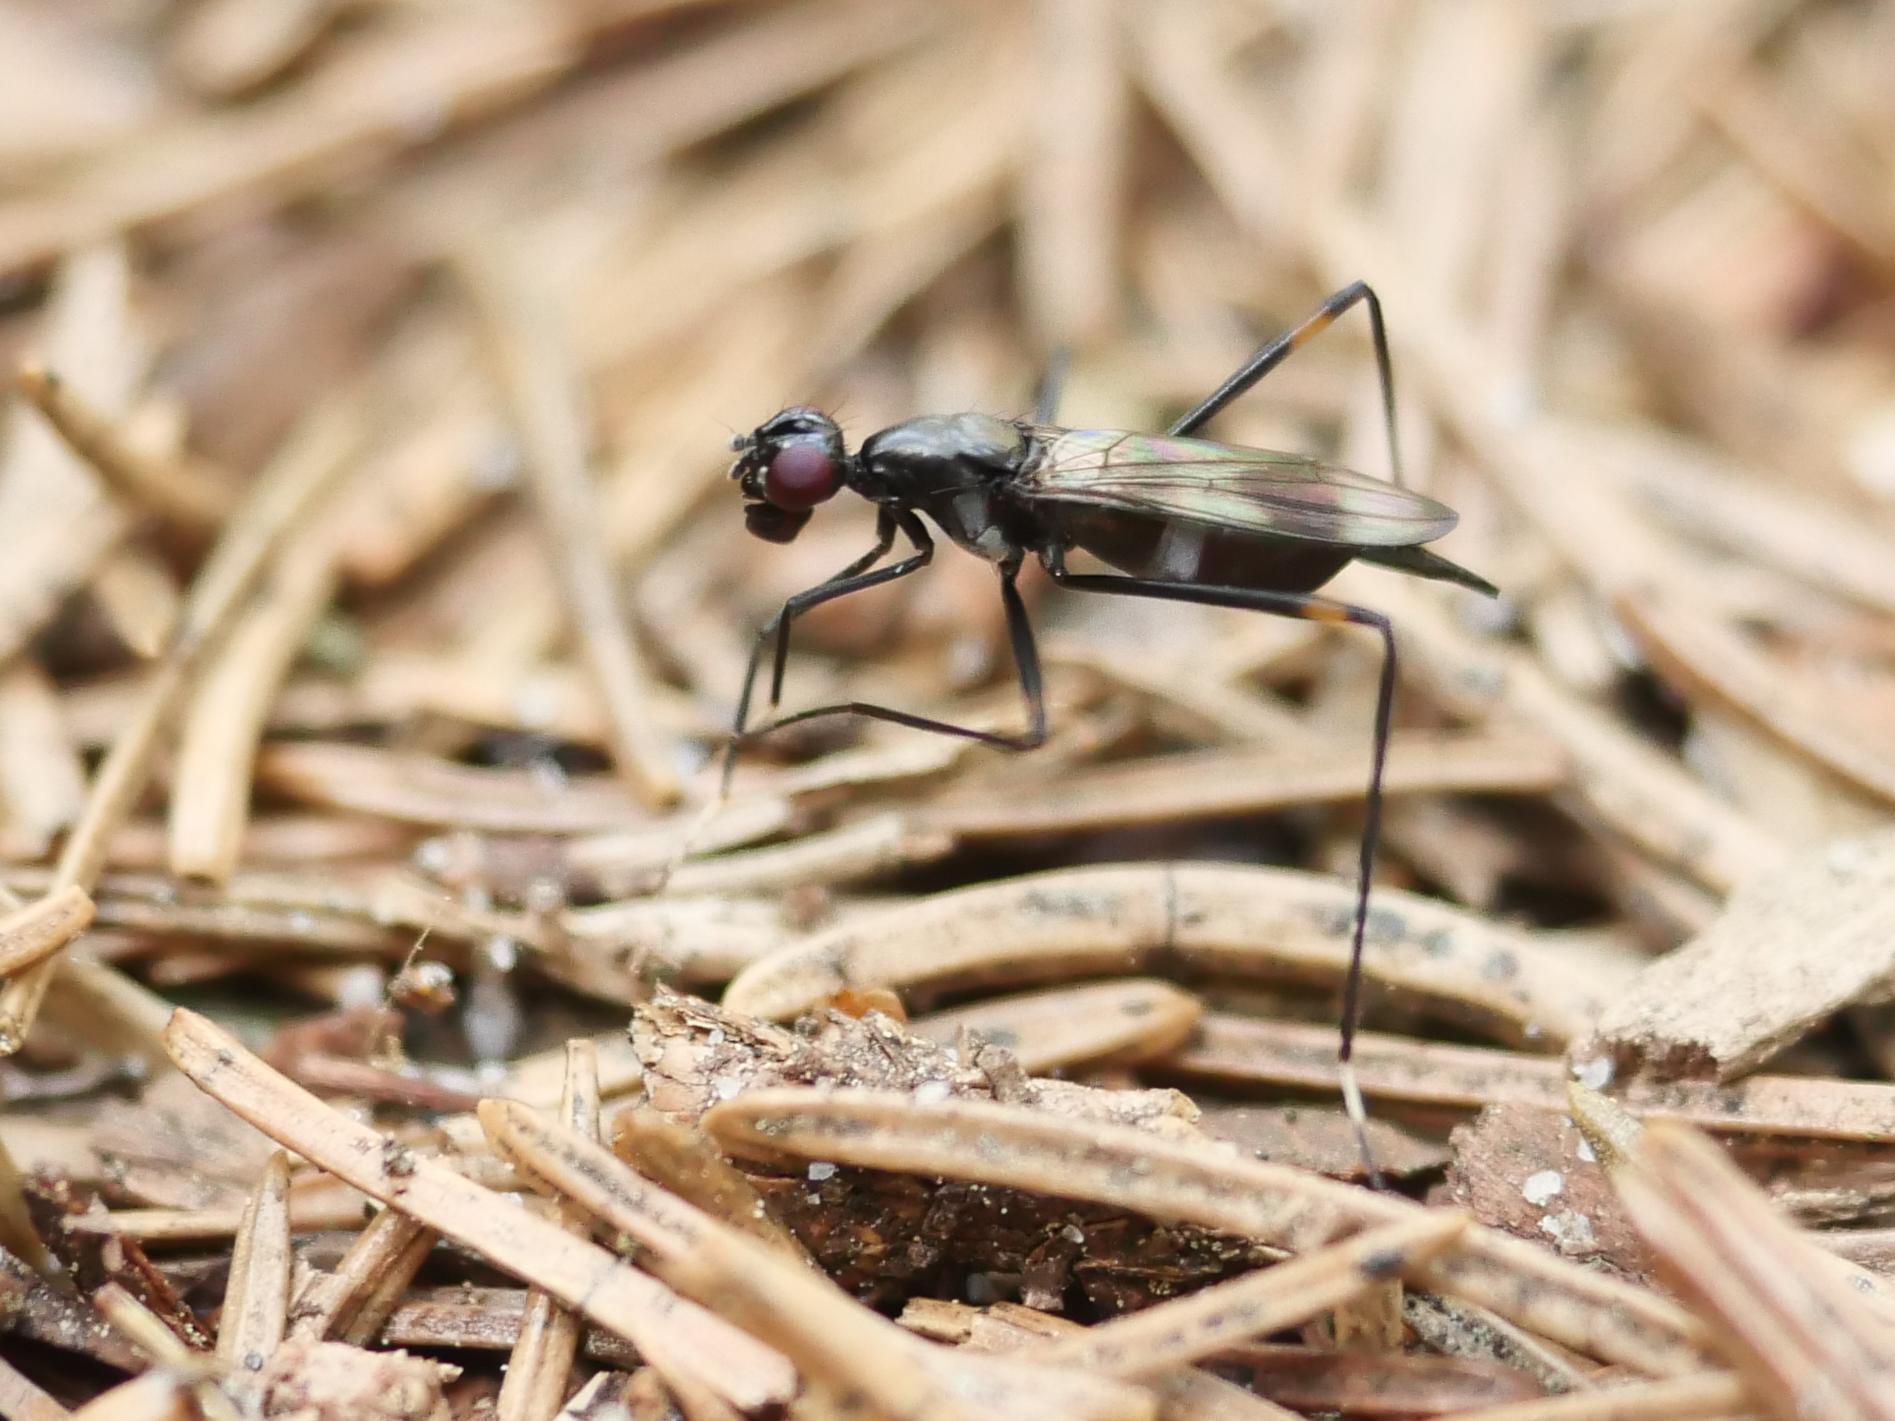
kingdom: Animalia
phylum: Arthropoda
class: Insecta
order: Diptera
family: Micropezidae
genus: Rainieria
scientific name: Rainieria calceata
